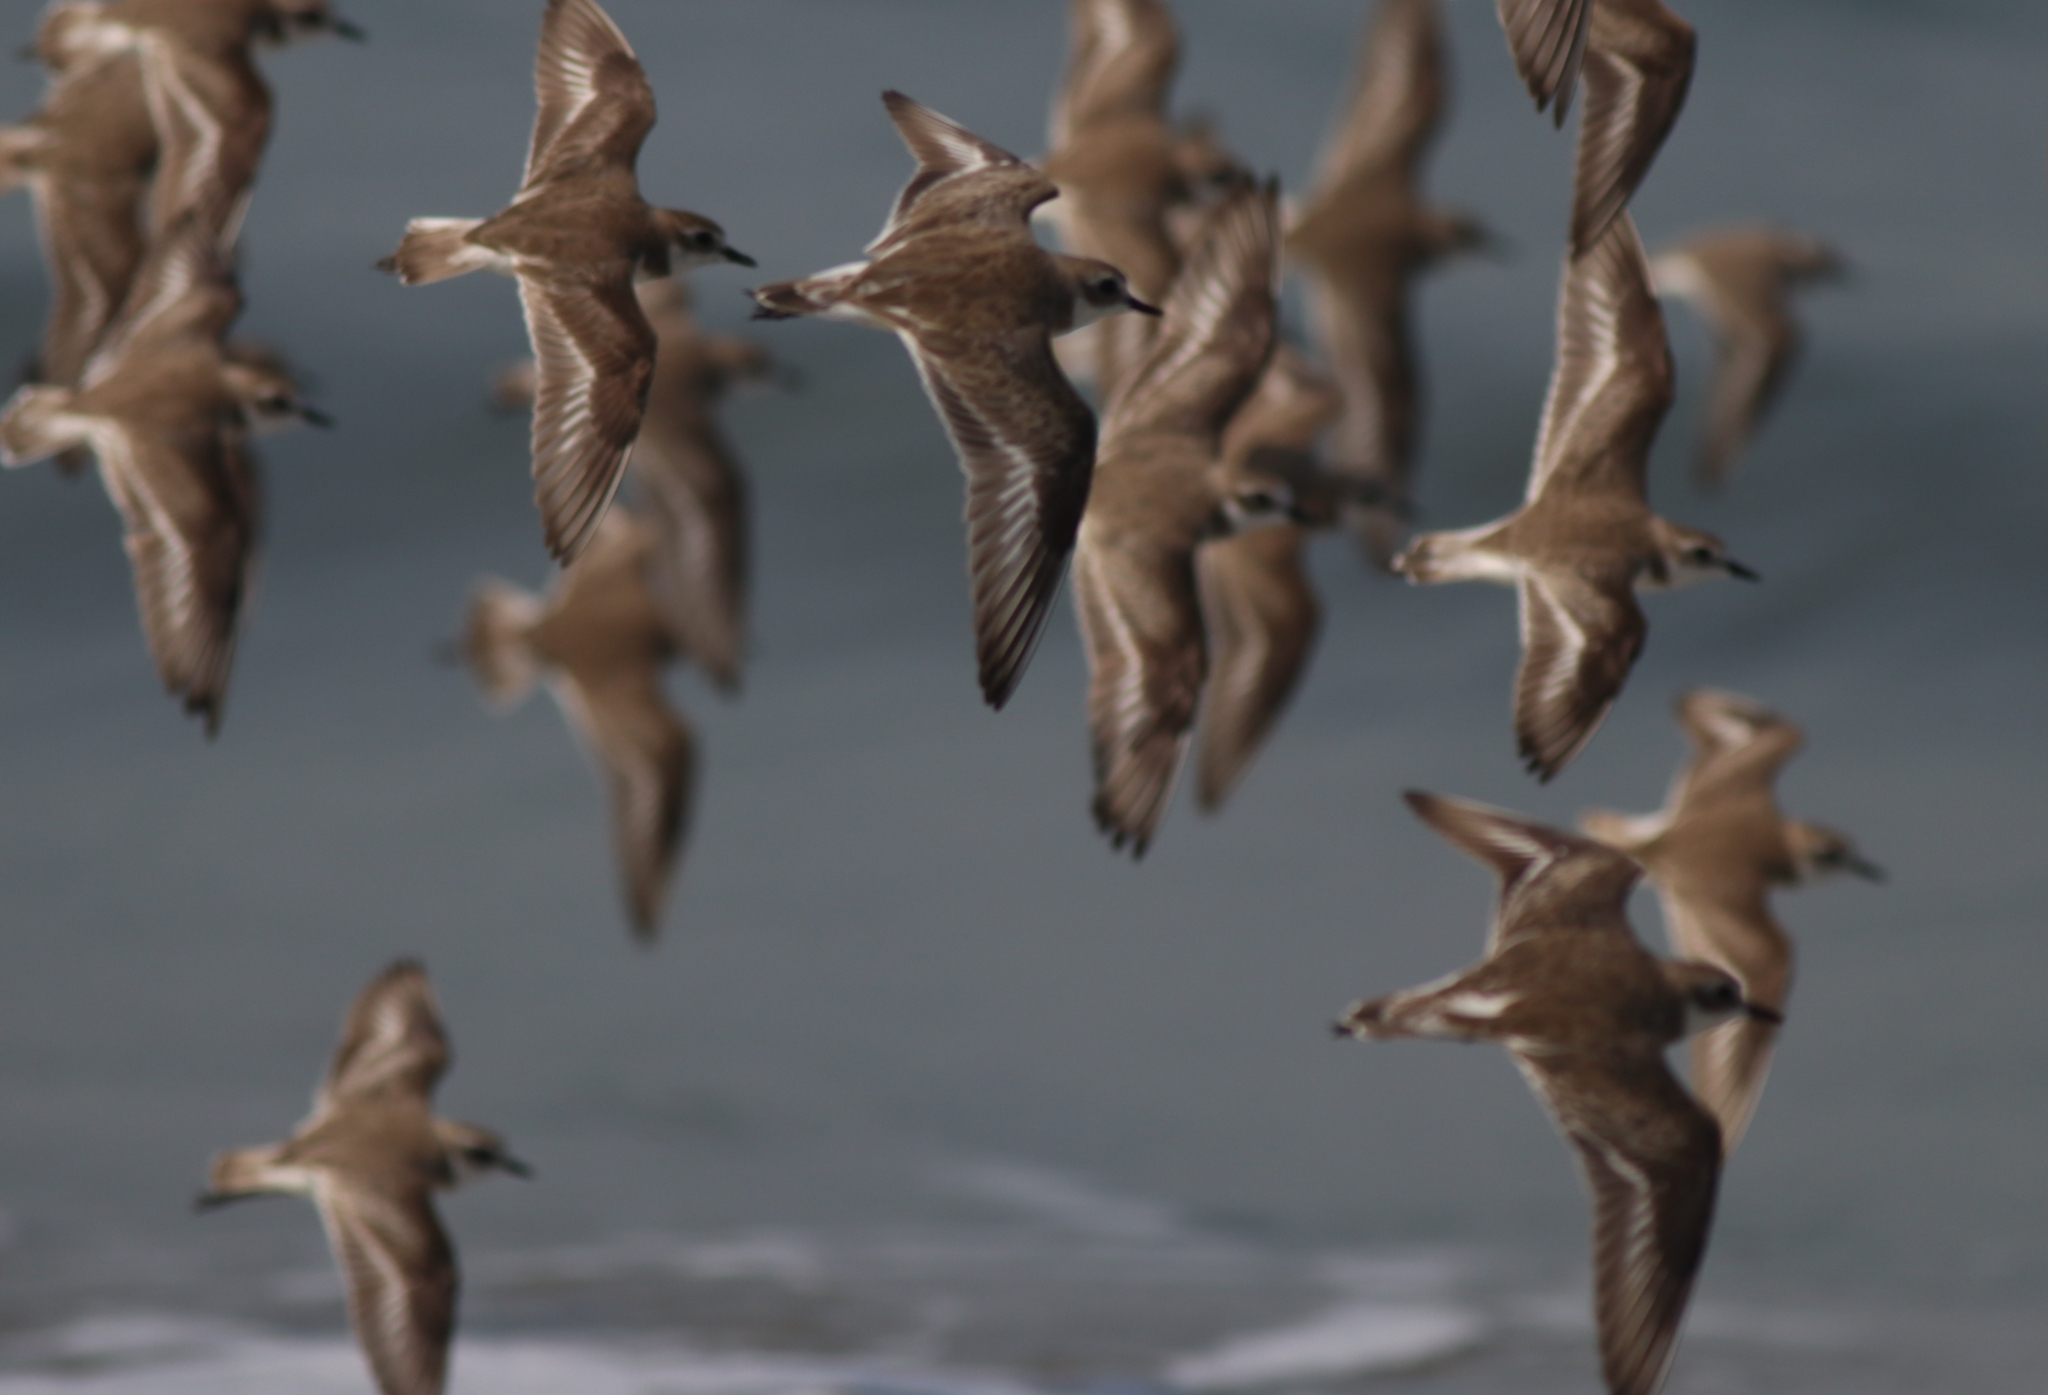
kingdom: Animalia
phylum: Chordata
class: Aves
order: Charadriiformes
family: Charadriidae
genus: Anarhynchus
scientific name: Anarhynchus
